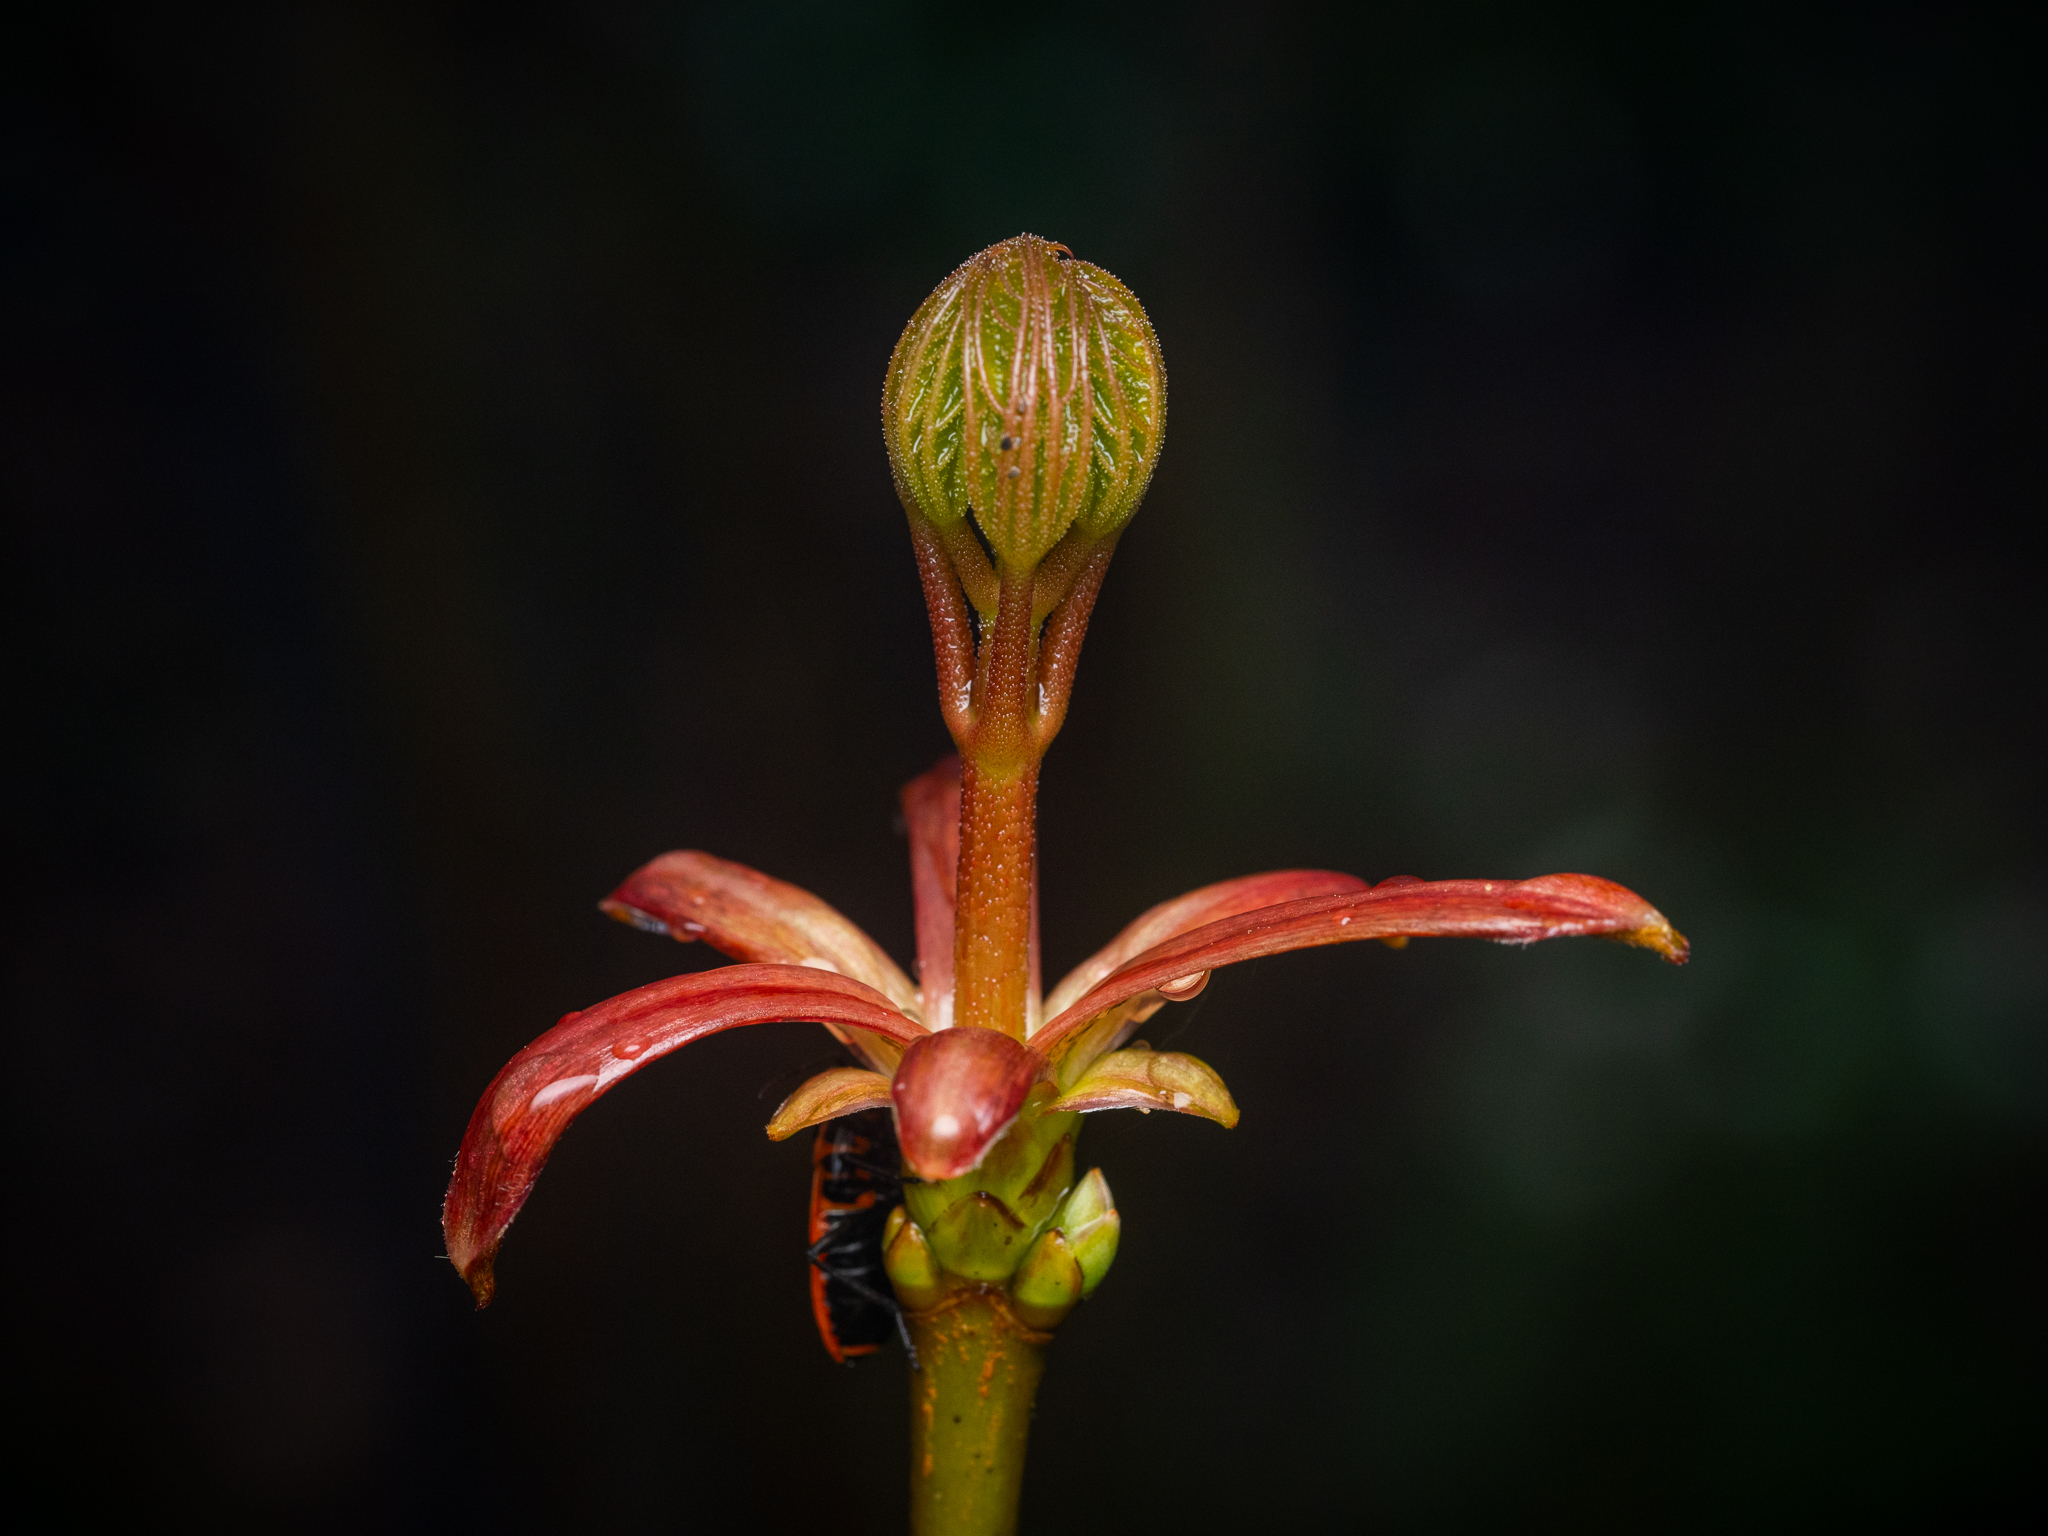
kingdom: Plantae
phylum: Tracheophyta
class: Magnoliopsida
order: Sapindales
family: Sapindaceae
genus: Acer
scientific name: Acer platanoides
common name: Norway maple
